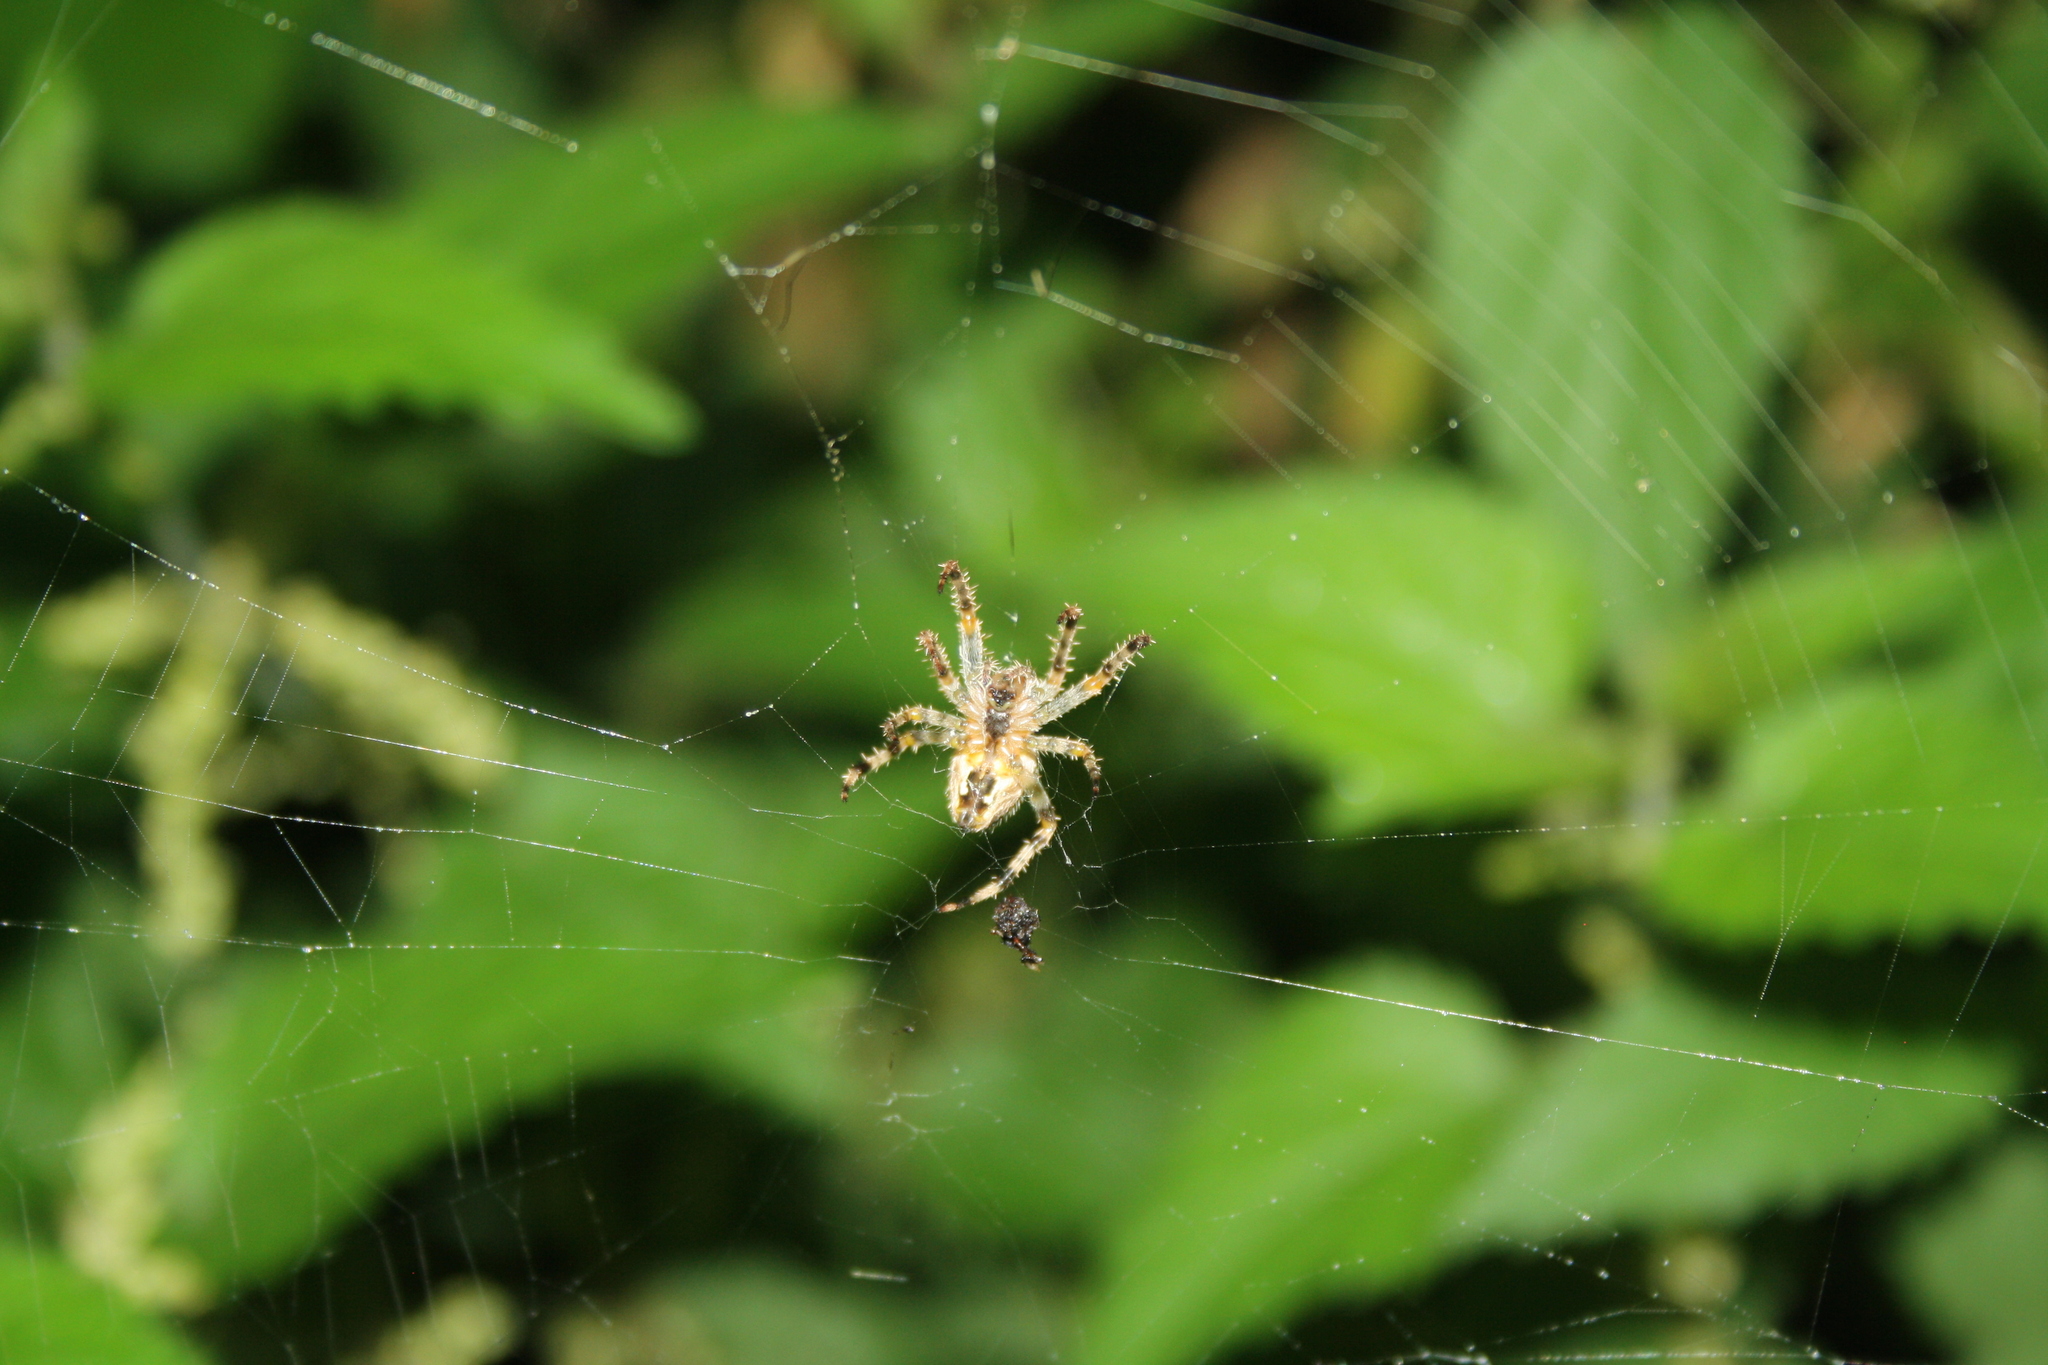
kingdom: Animalia
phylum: Arthropoda
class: Arachnida
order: Araneae
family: Araneidae
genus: Araneus
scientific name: Araneus diadematus
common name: Cross orbweaver
